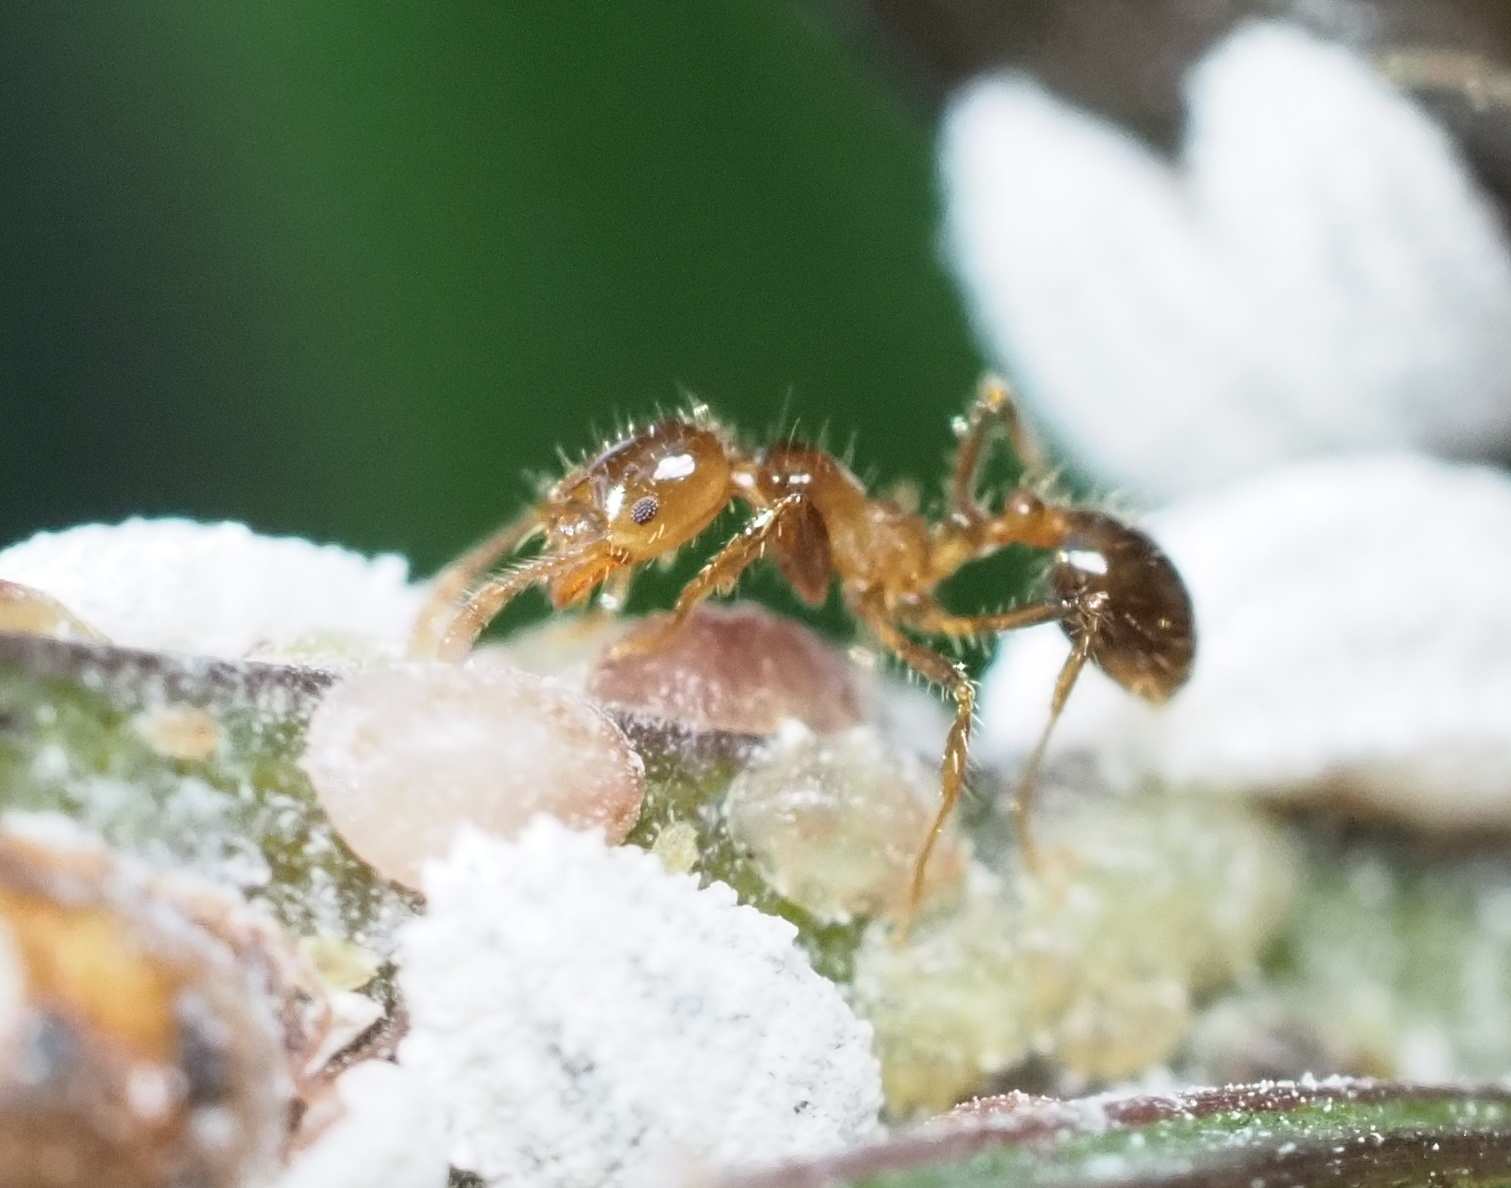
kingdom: Animalia
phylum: Arthropoda
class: Insecta
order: Hymenoptera
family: Formicidae
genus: Solenopsis
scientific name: Solenopsis geminata
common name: Tropical fire ant
